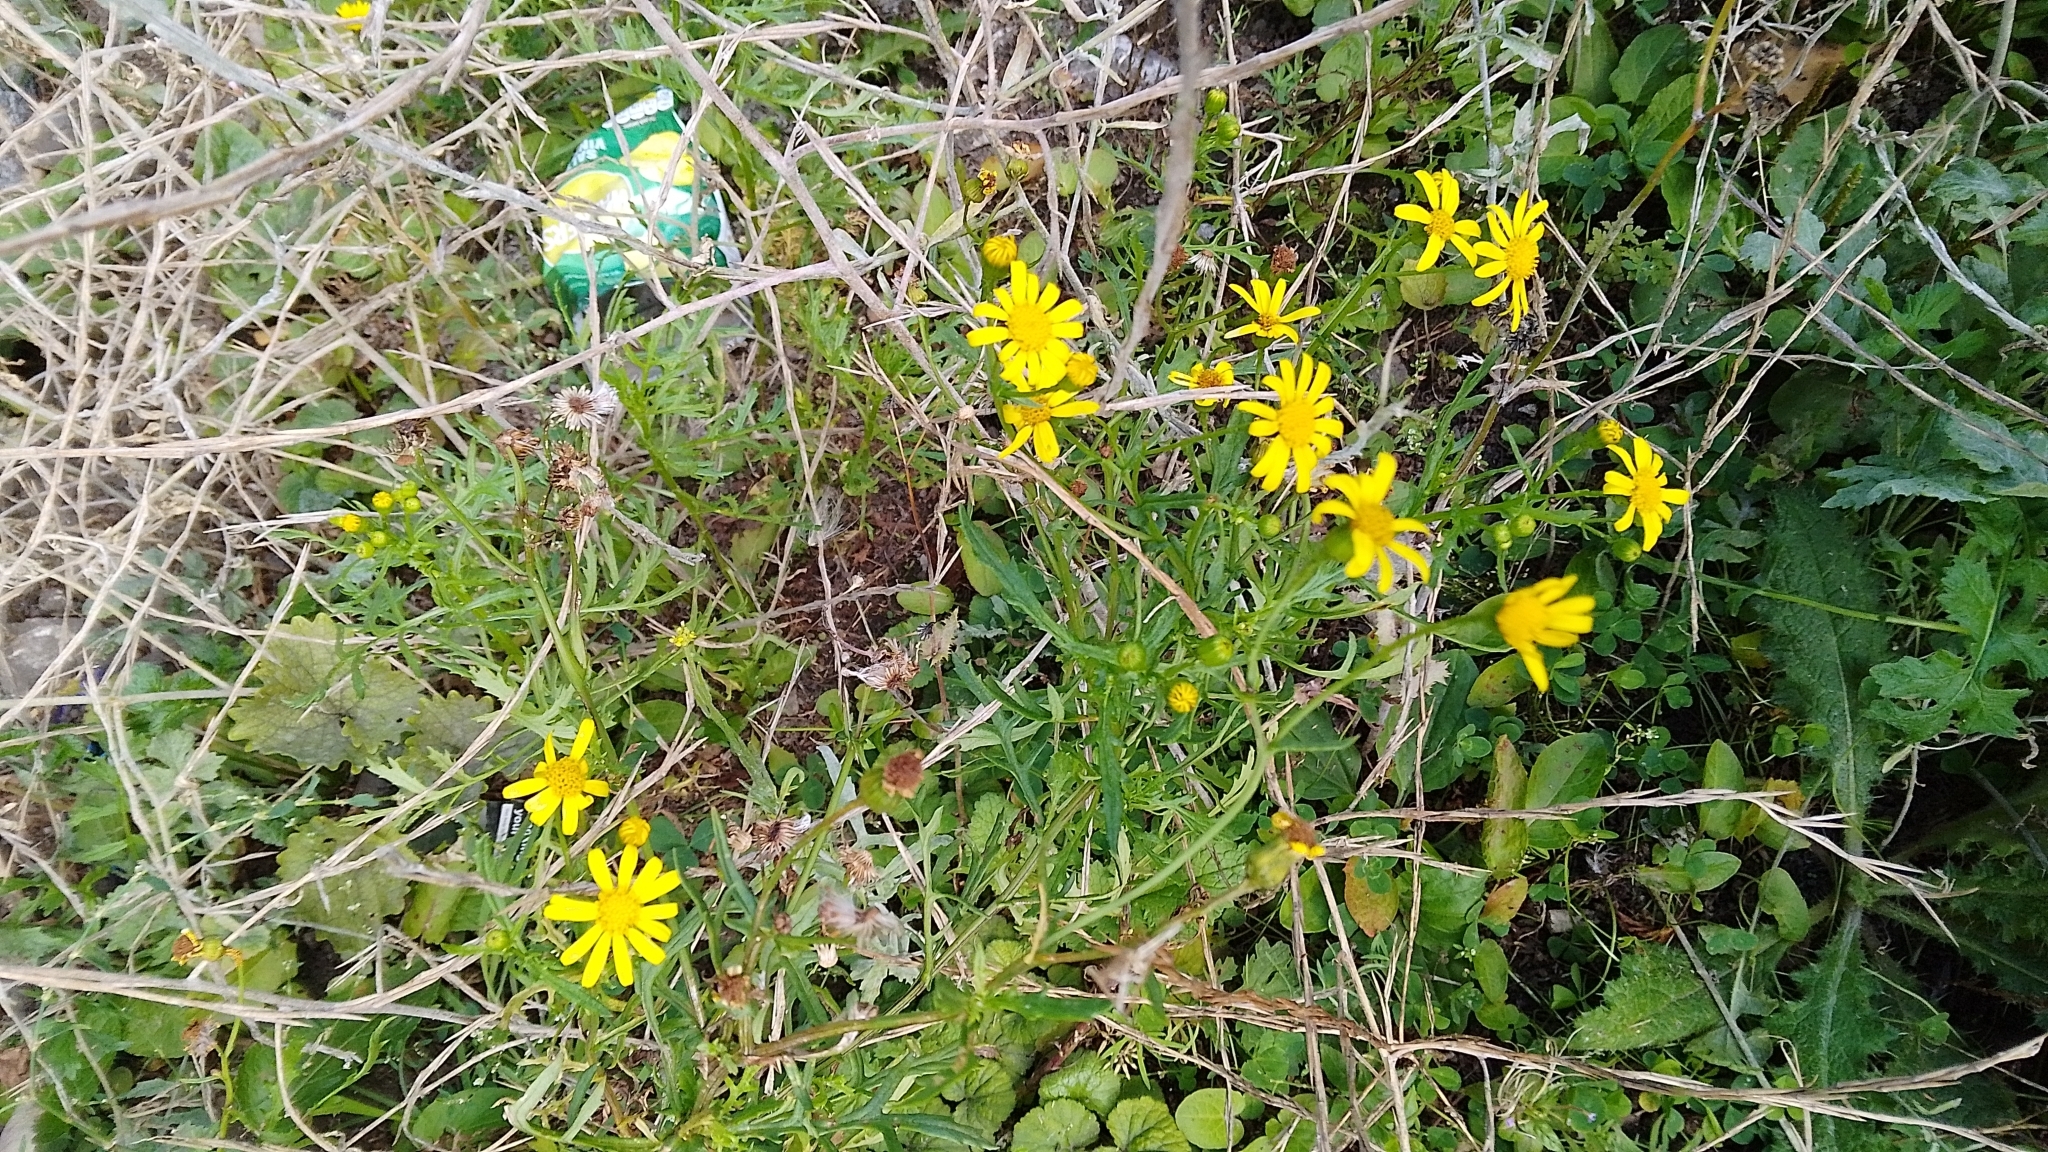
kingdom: Plantae
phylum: Tracheophyta
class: Magnoliopsida
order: Asterales
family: Asteraceae
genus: Senecio
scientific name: Senecio squalidus
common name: Oxford ragwort
